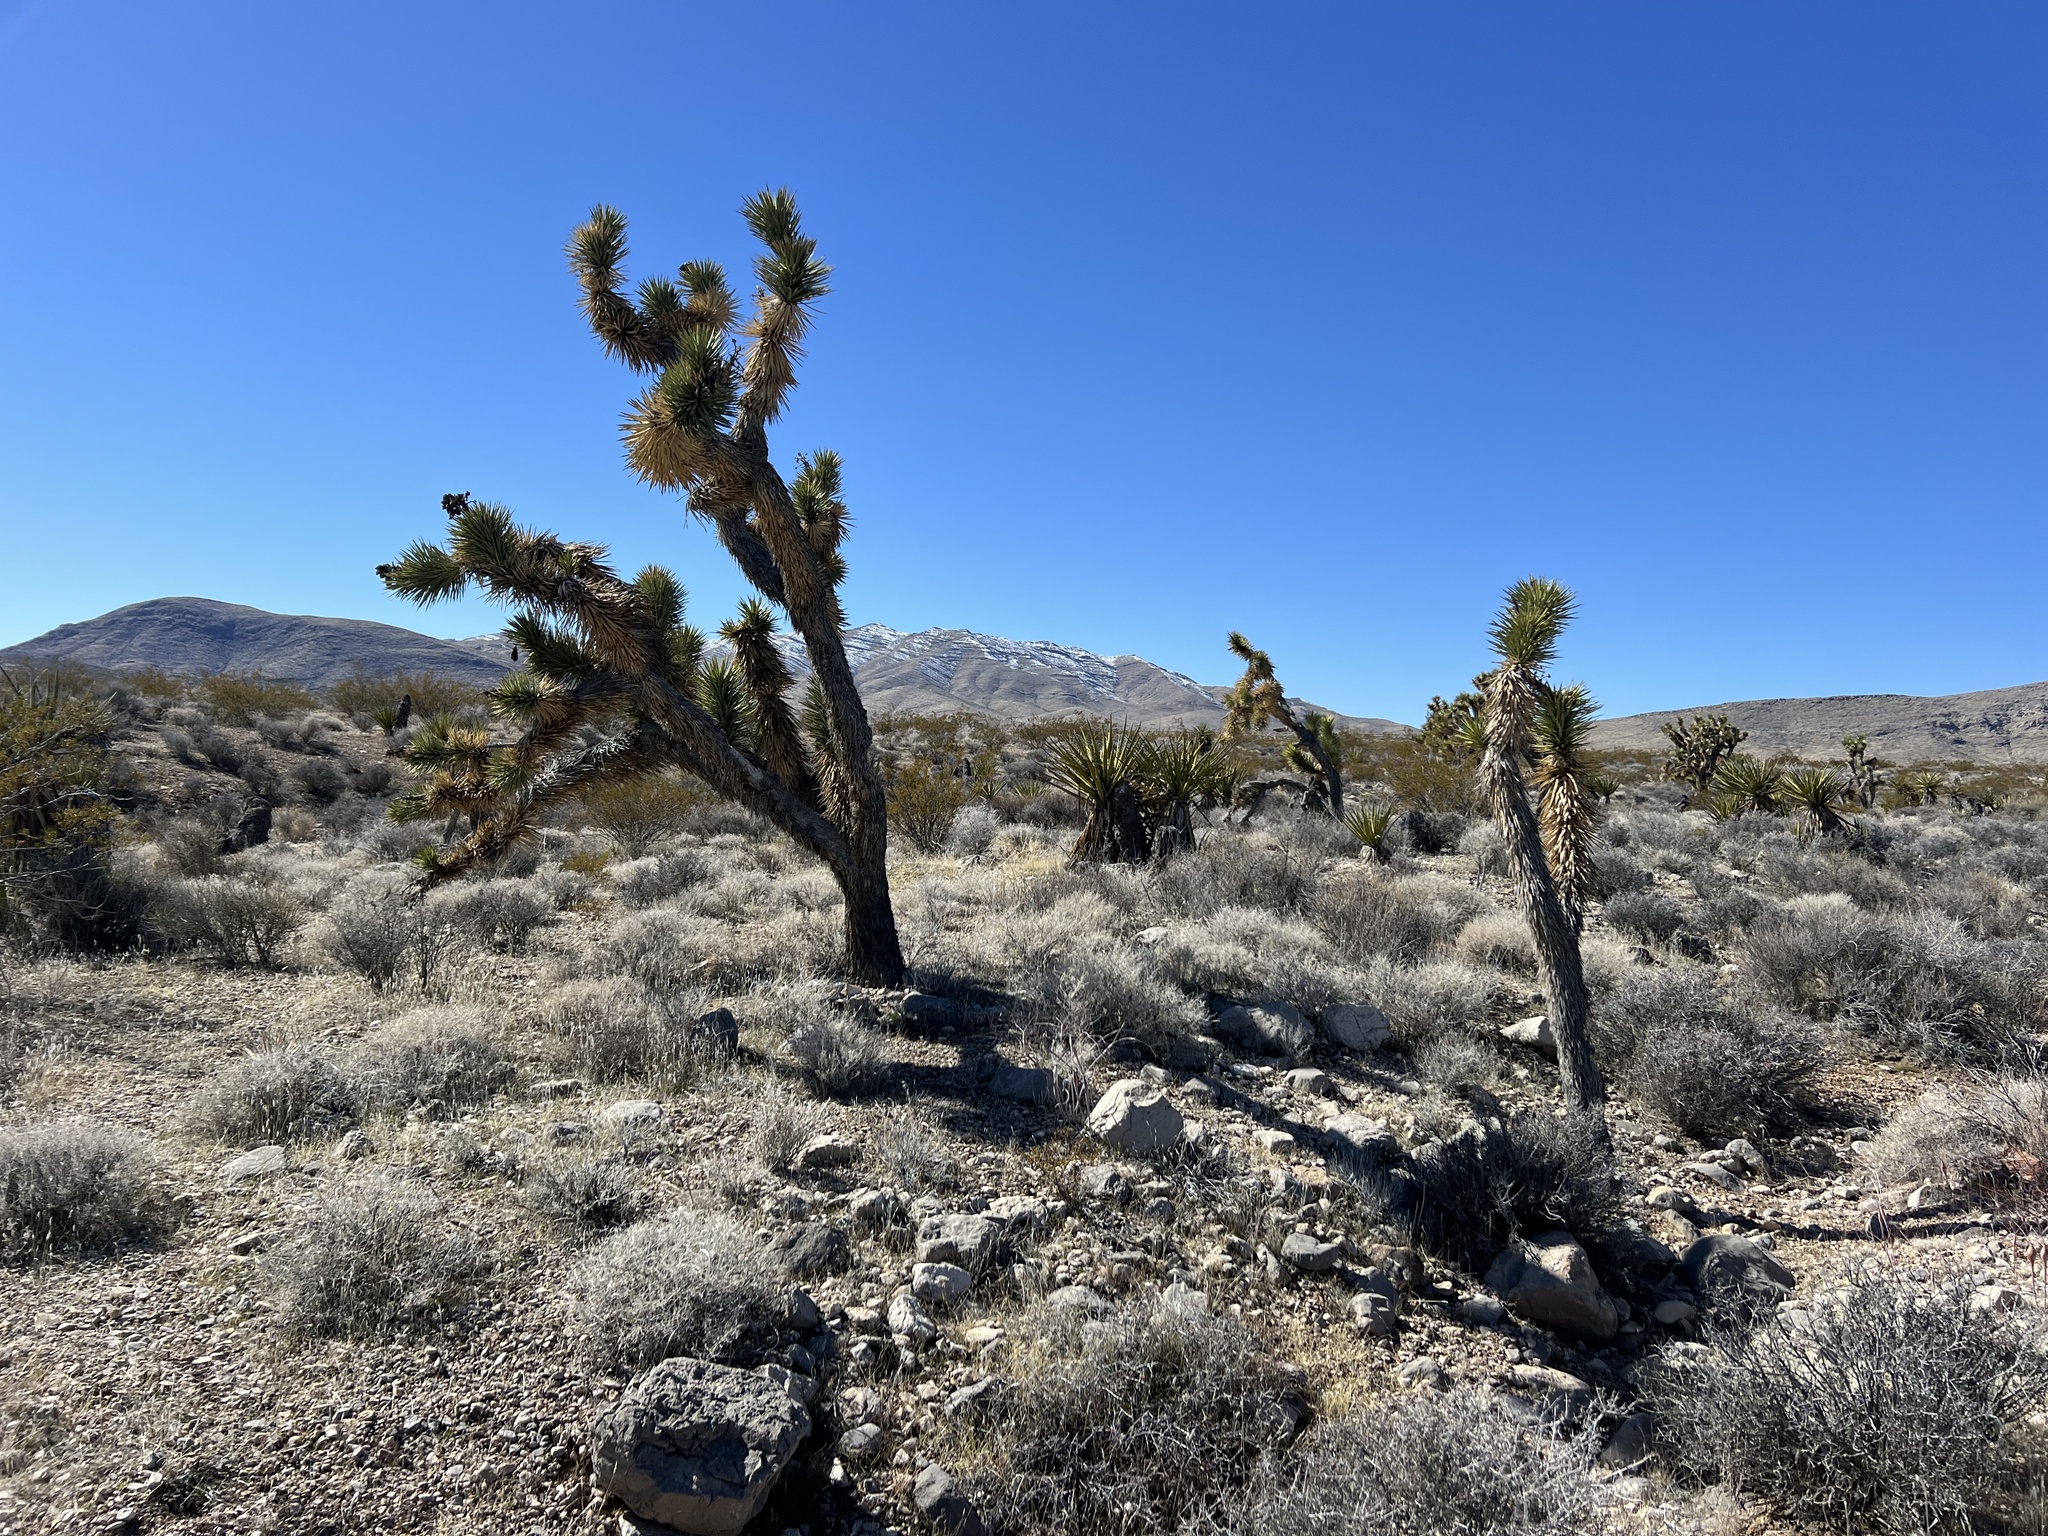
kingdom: Plantae
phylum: Tracheophyta
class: Liliopsida
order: Asparagales
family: Asparagaceae
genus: Yucca
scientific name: Yucca brevifolia
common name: Joshua tree
